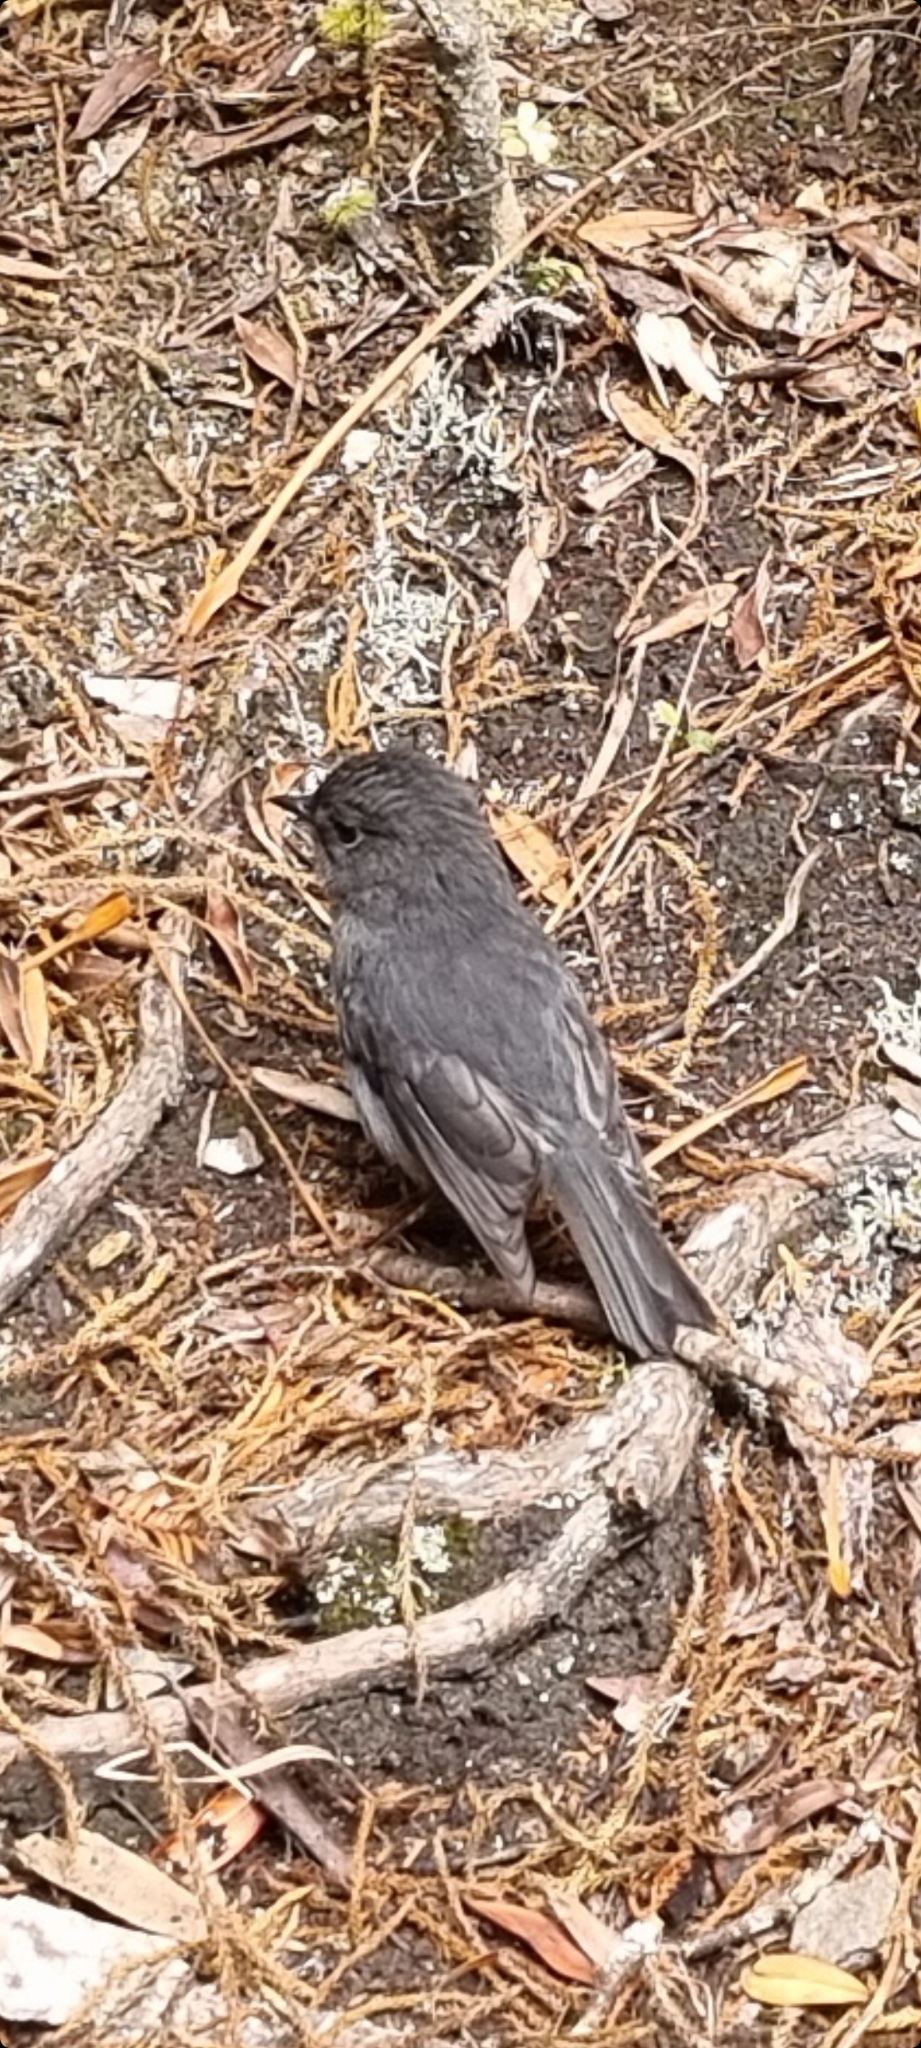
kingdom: Animalia
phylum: Chordata
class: Aves
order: Passeriformes
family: Petroicidae
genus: Petroica
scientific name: Petroica australis
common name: New zealand robin
